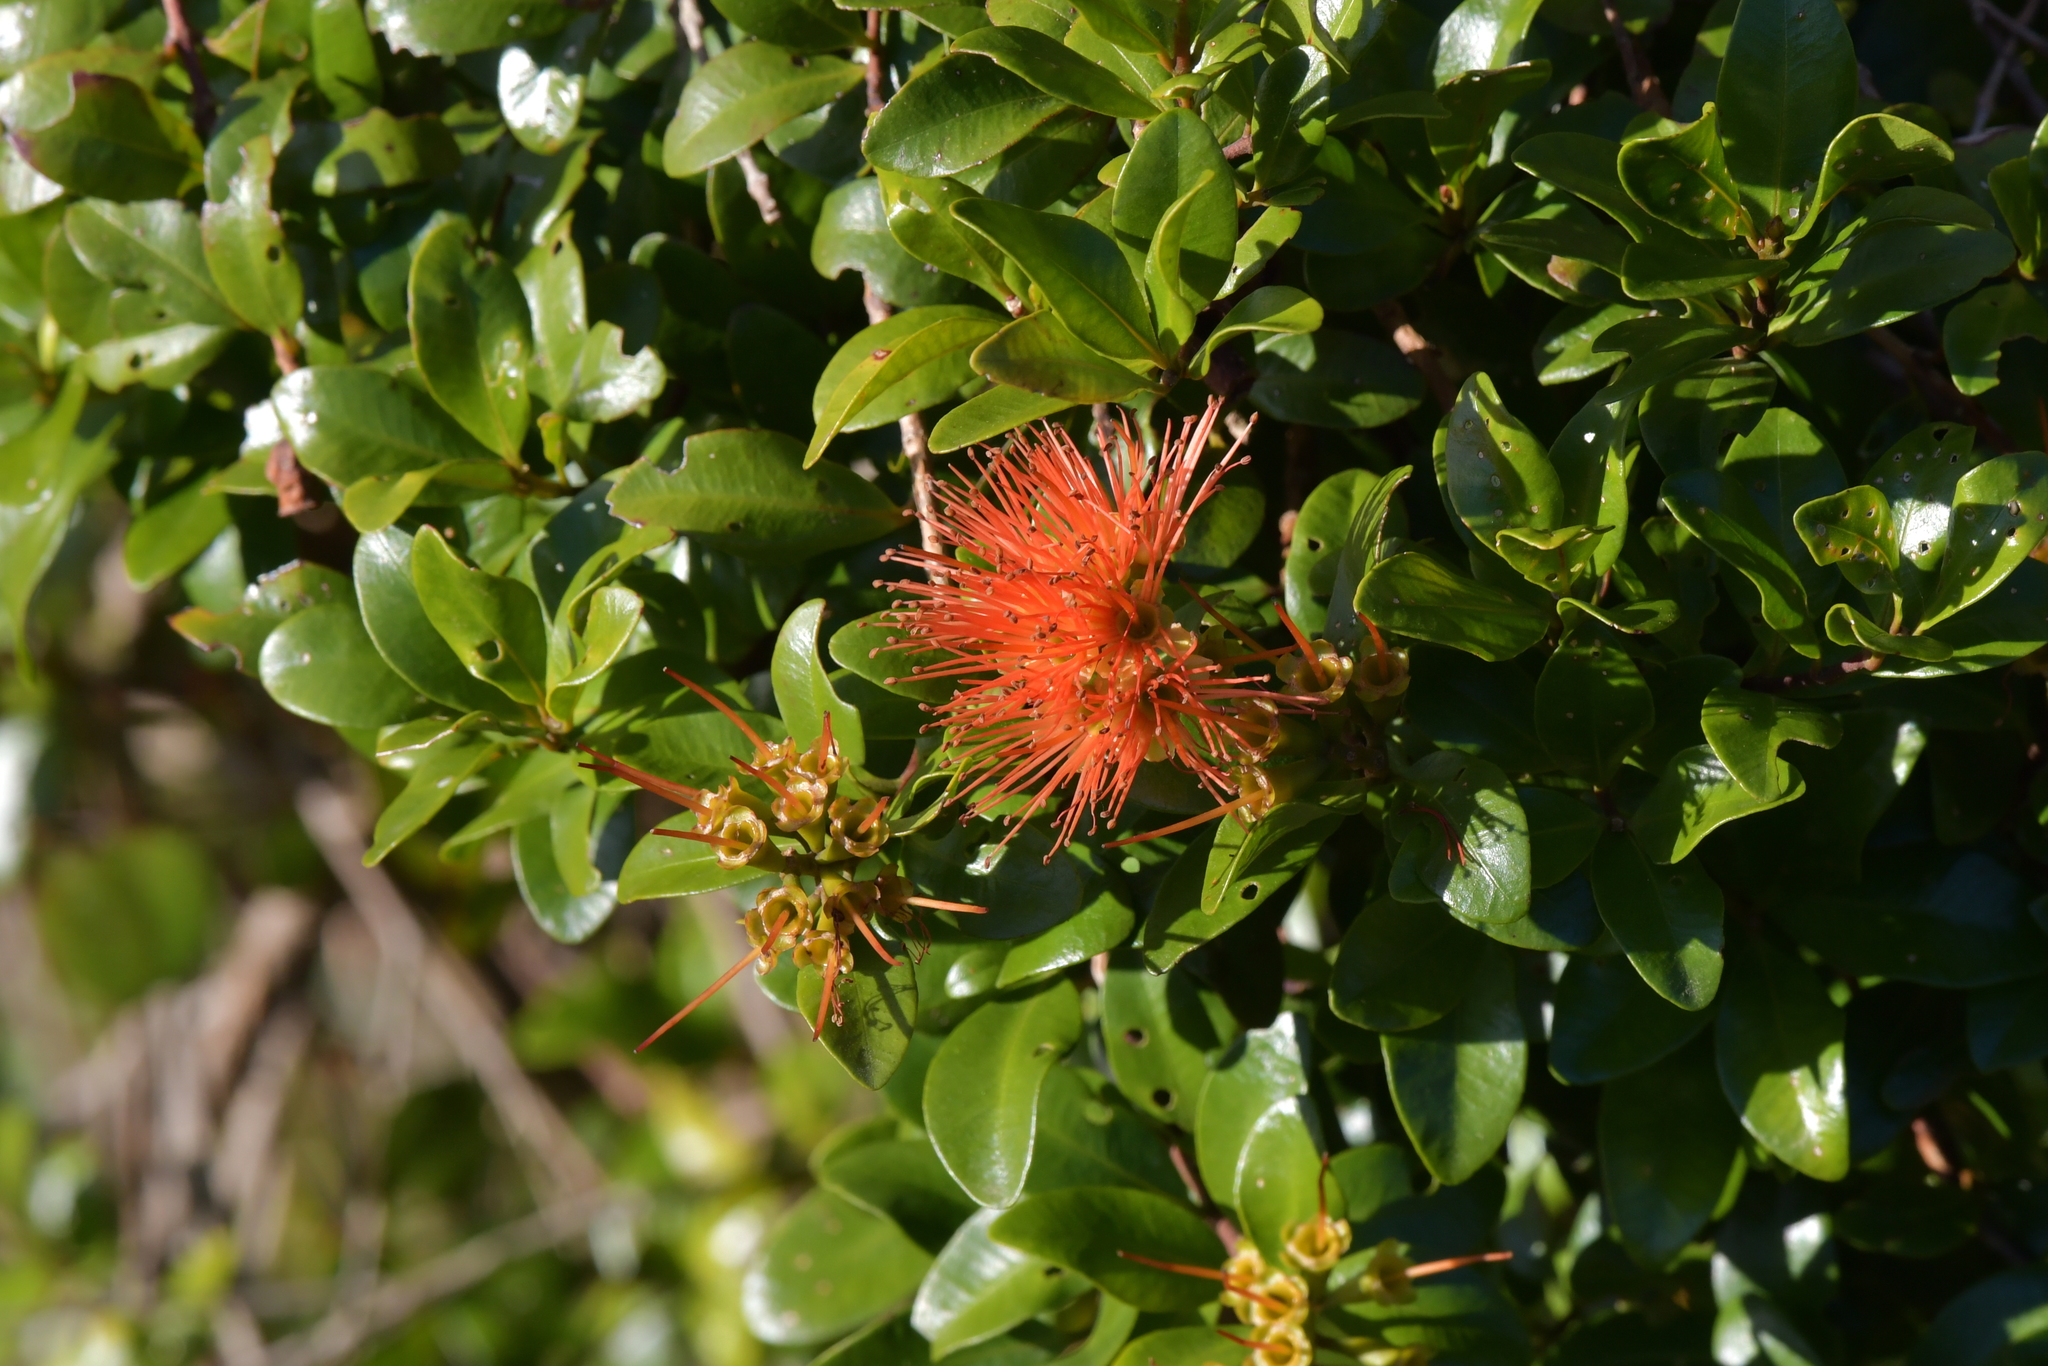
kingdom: Plantae
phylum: Tracheophyta
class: Magnoliopsida
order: Myrtales
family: Myrtaceae
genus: Metrosideros
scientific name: Metrosideros fulgens
